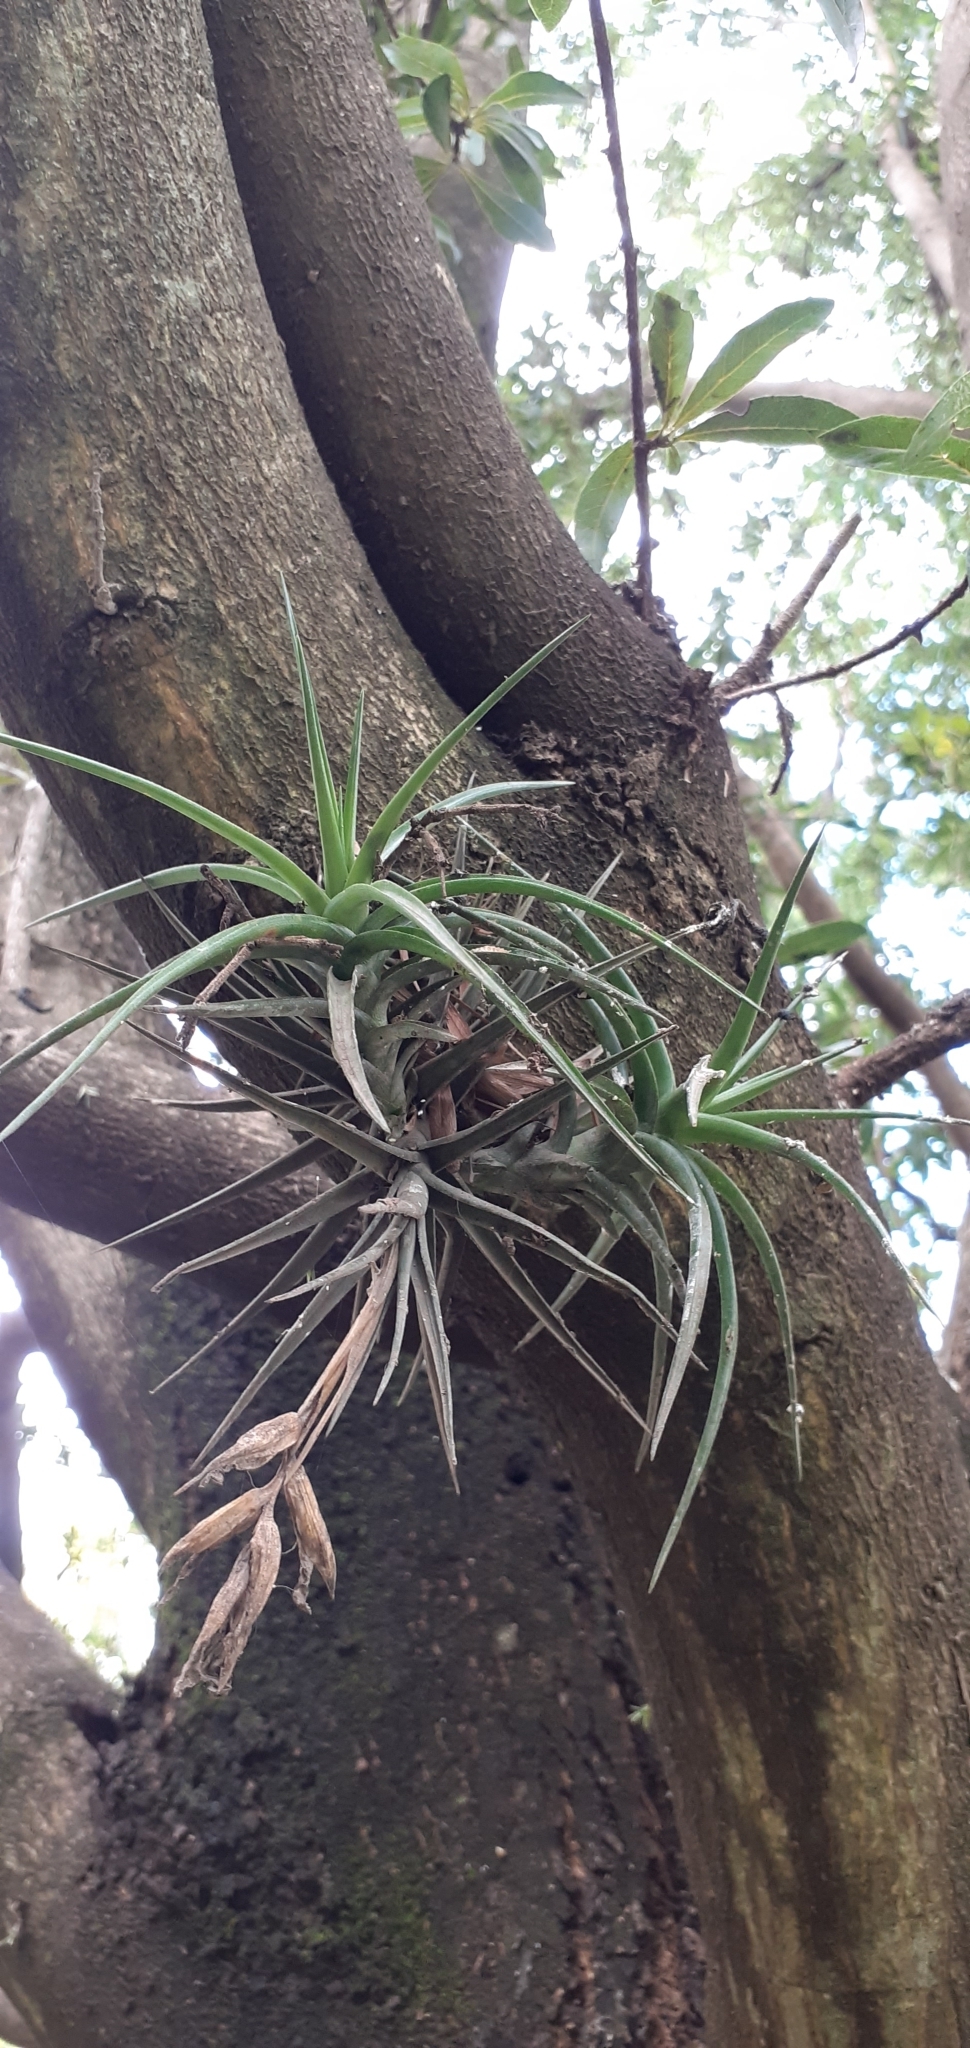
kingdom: Plantae
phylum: Tracheophyta
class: Liliopsida
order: Poales
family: Bromeliaceae
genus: Tillandsia
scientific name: Tillandsia aeranthos
